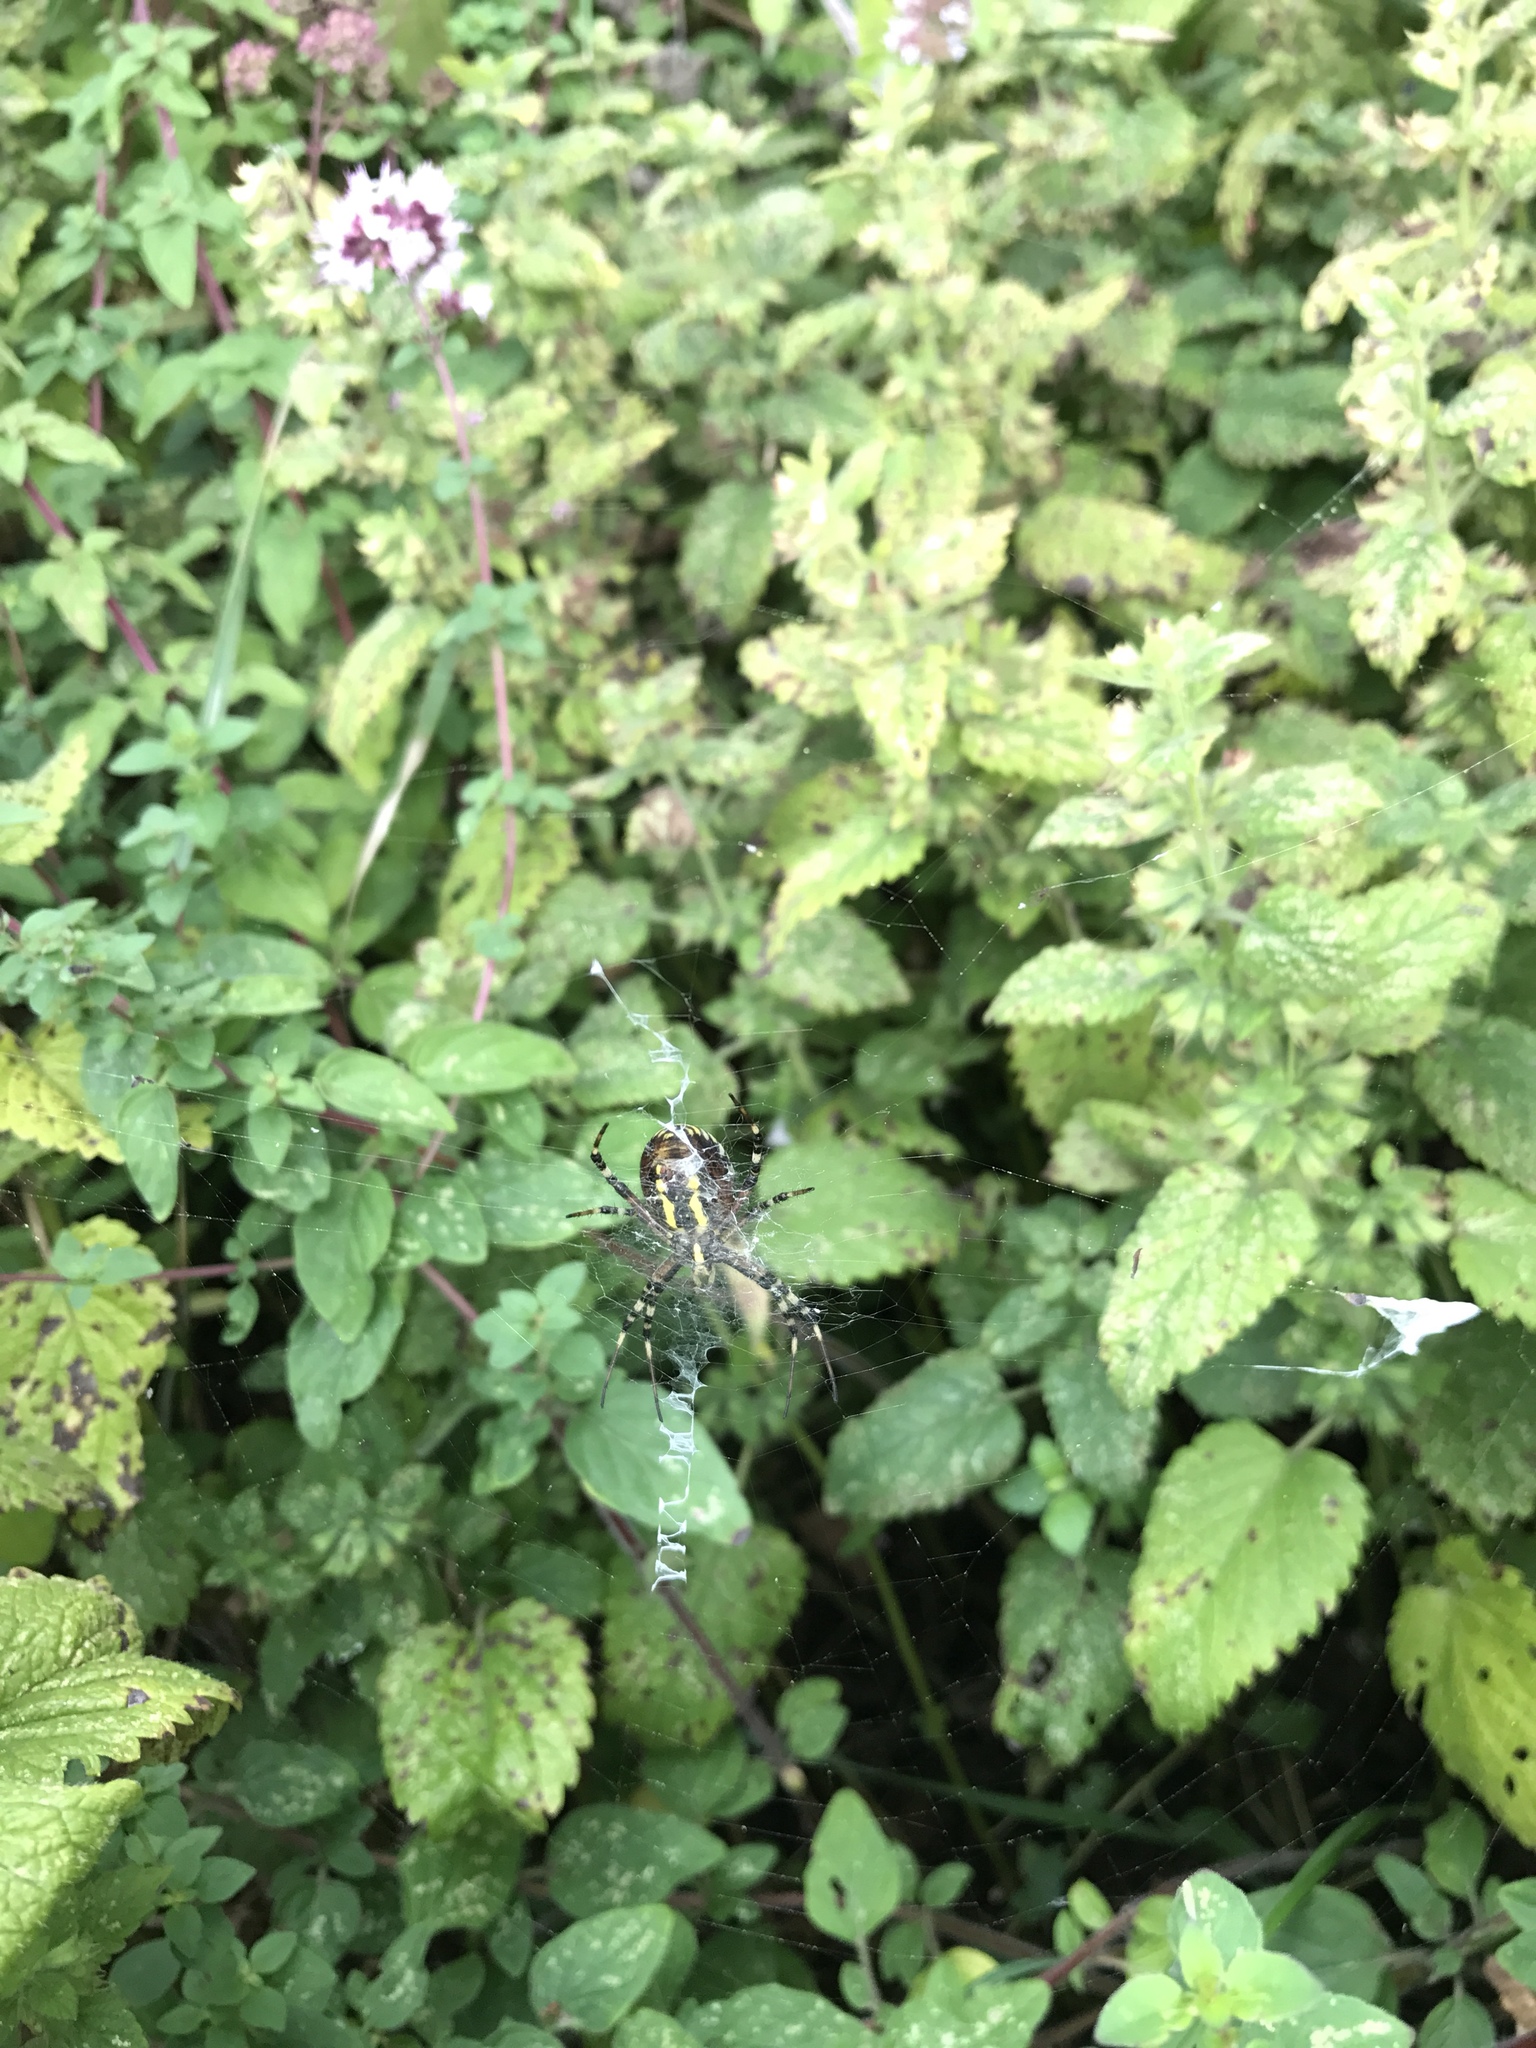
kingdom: Animalia
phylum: Arthropoda
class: Arachnida
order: Araneae
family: Araneidae
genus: Argiope
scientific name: Argiope bruennichi
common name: Wasp spider
